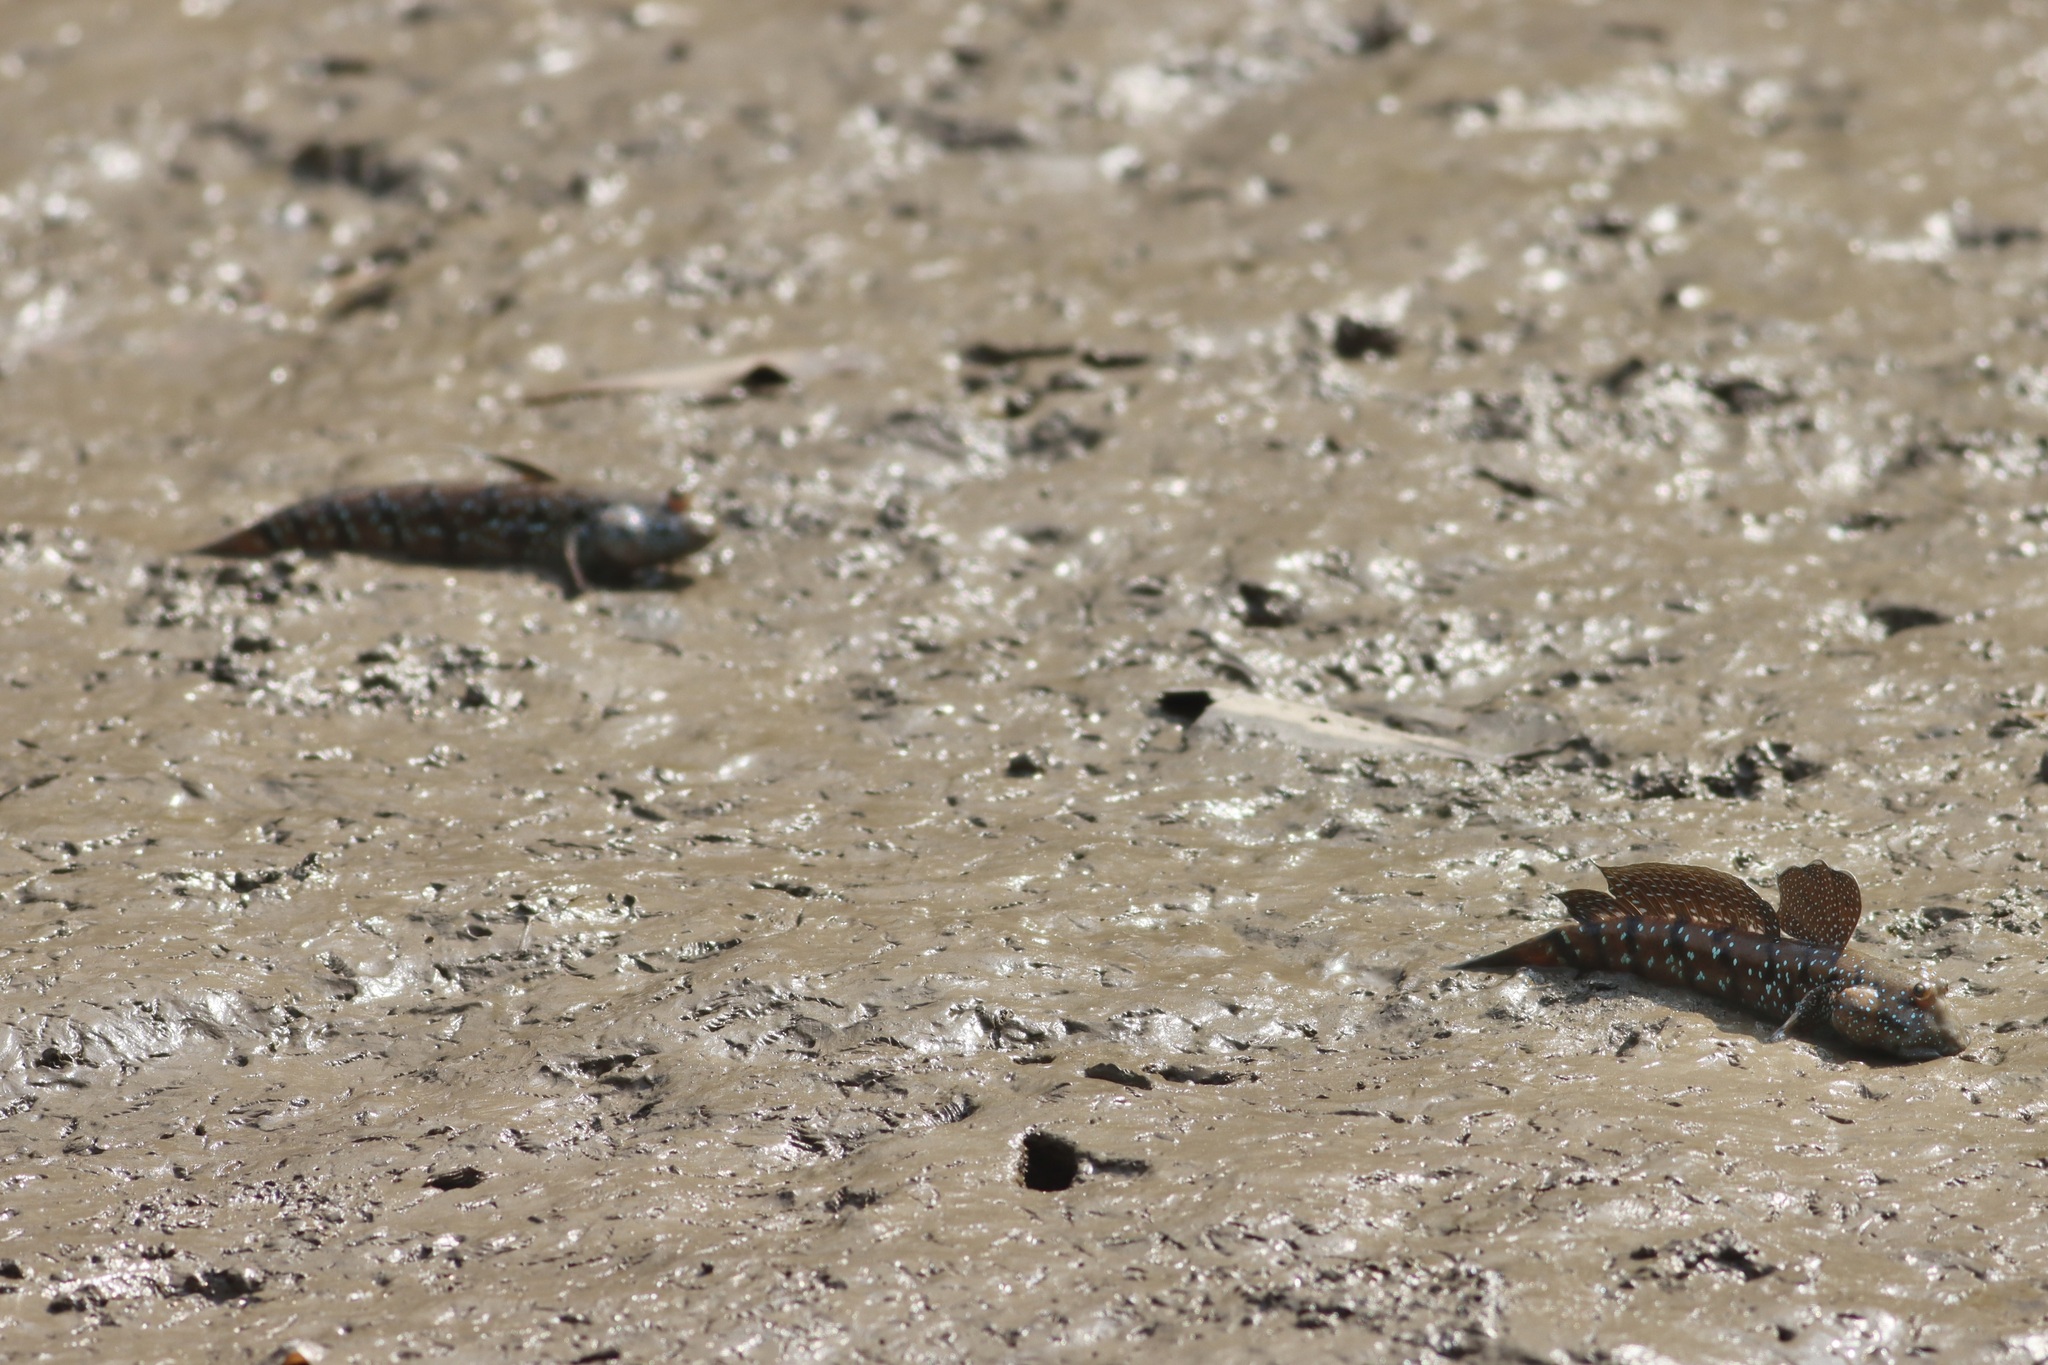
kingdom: Animalia
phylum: Chordata
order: Perciformes
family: Gobiidae
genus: Boleophthalmus
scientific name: Boleophthalmus boddarti
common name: Boddart's goggle-eyed goby
